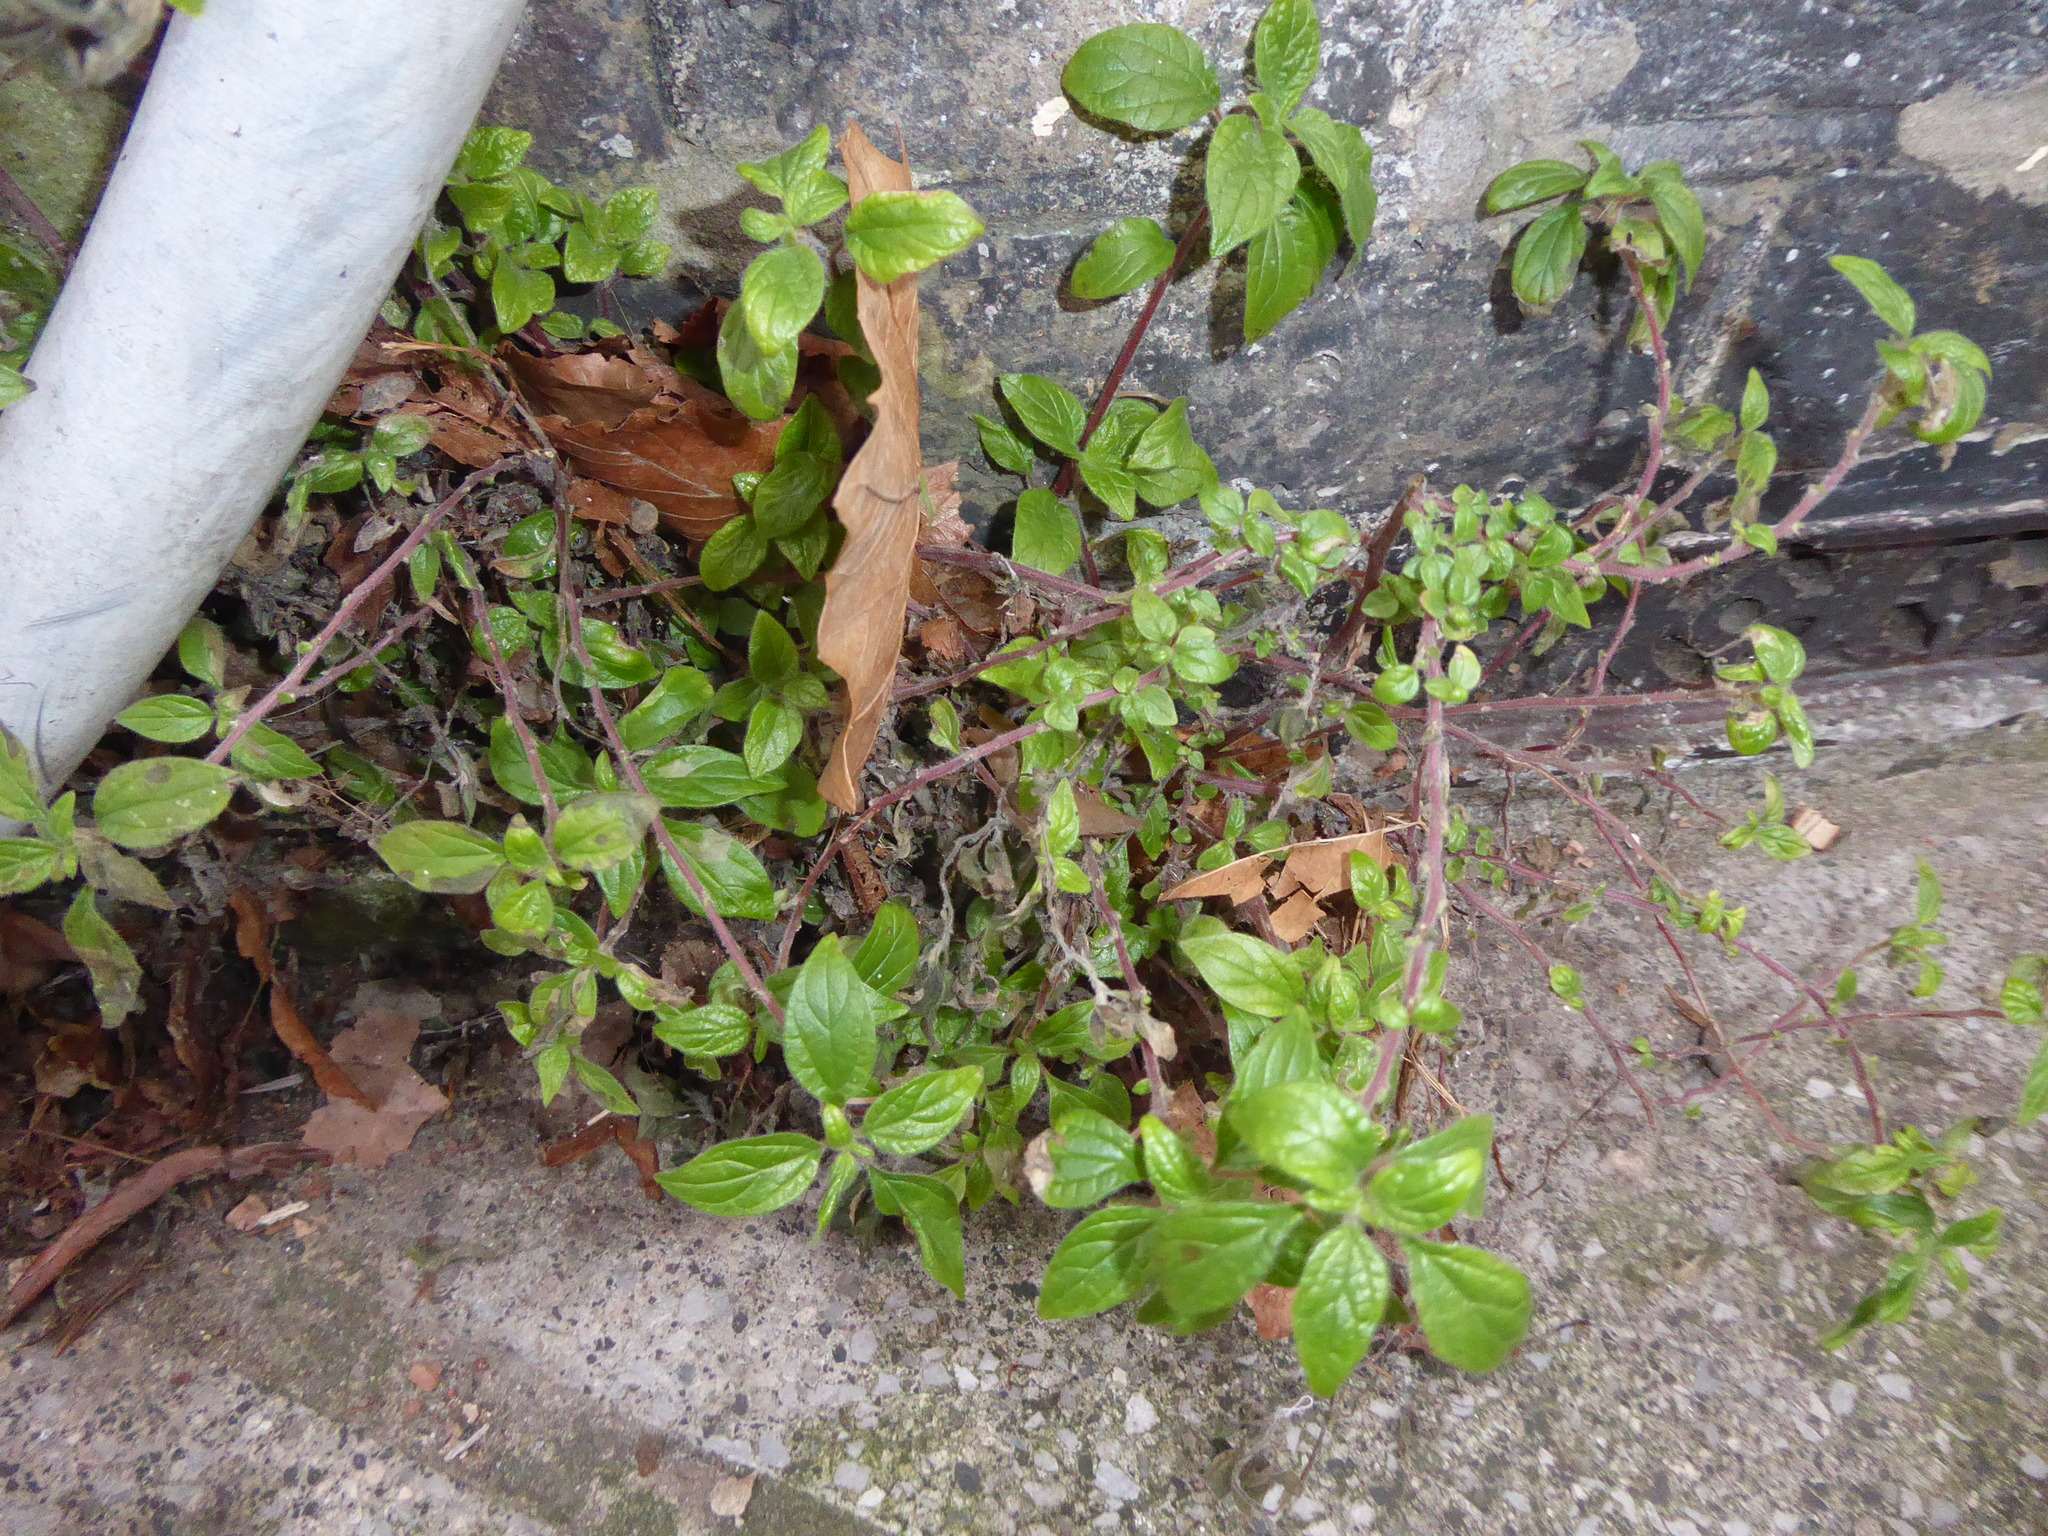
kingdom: Plantae
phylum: Tracheophyta
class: Magnoliopsida
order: Rosales
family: Urticaceae
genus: Parietaria
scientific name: Parietaria judaica
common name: Pellitory-of-the-wall
